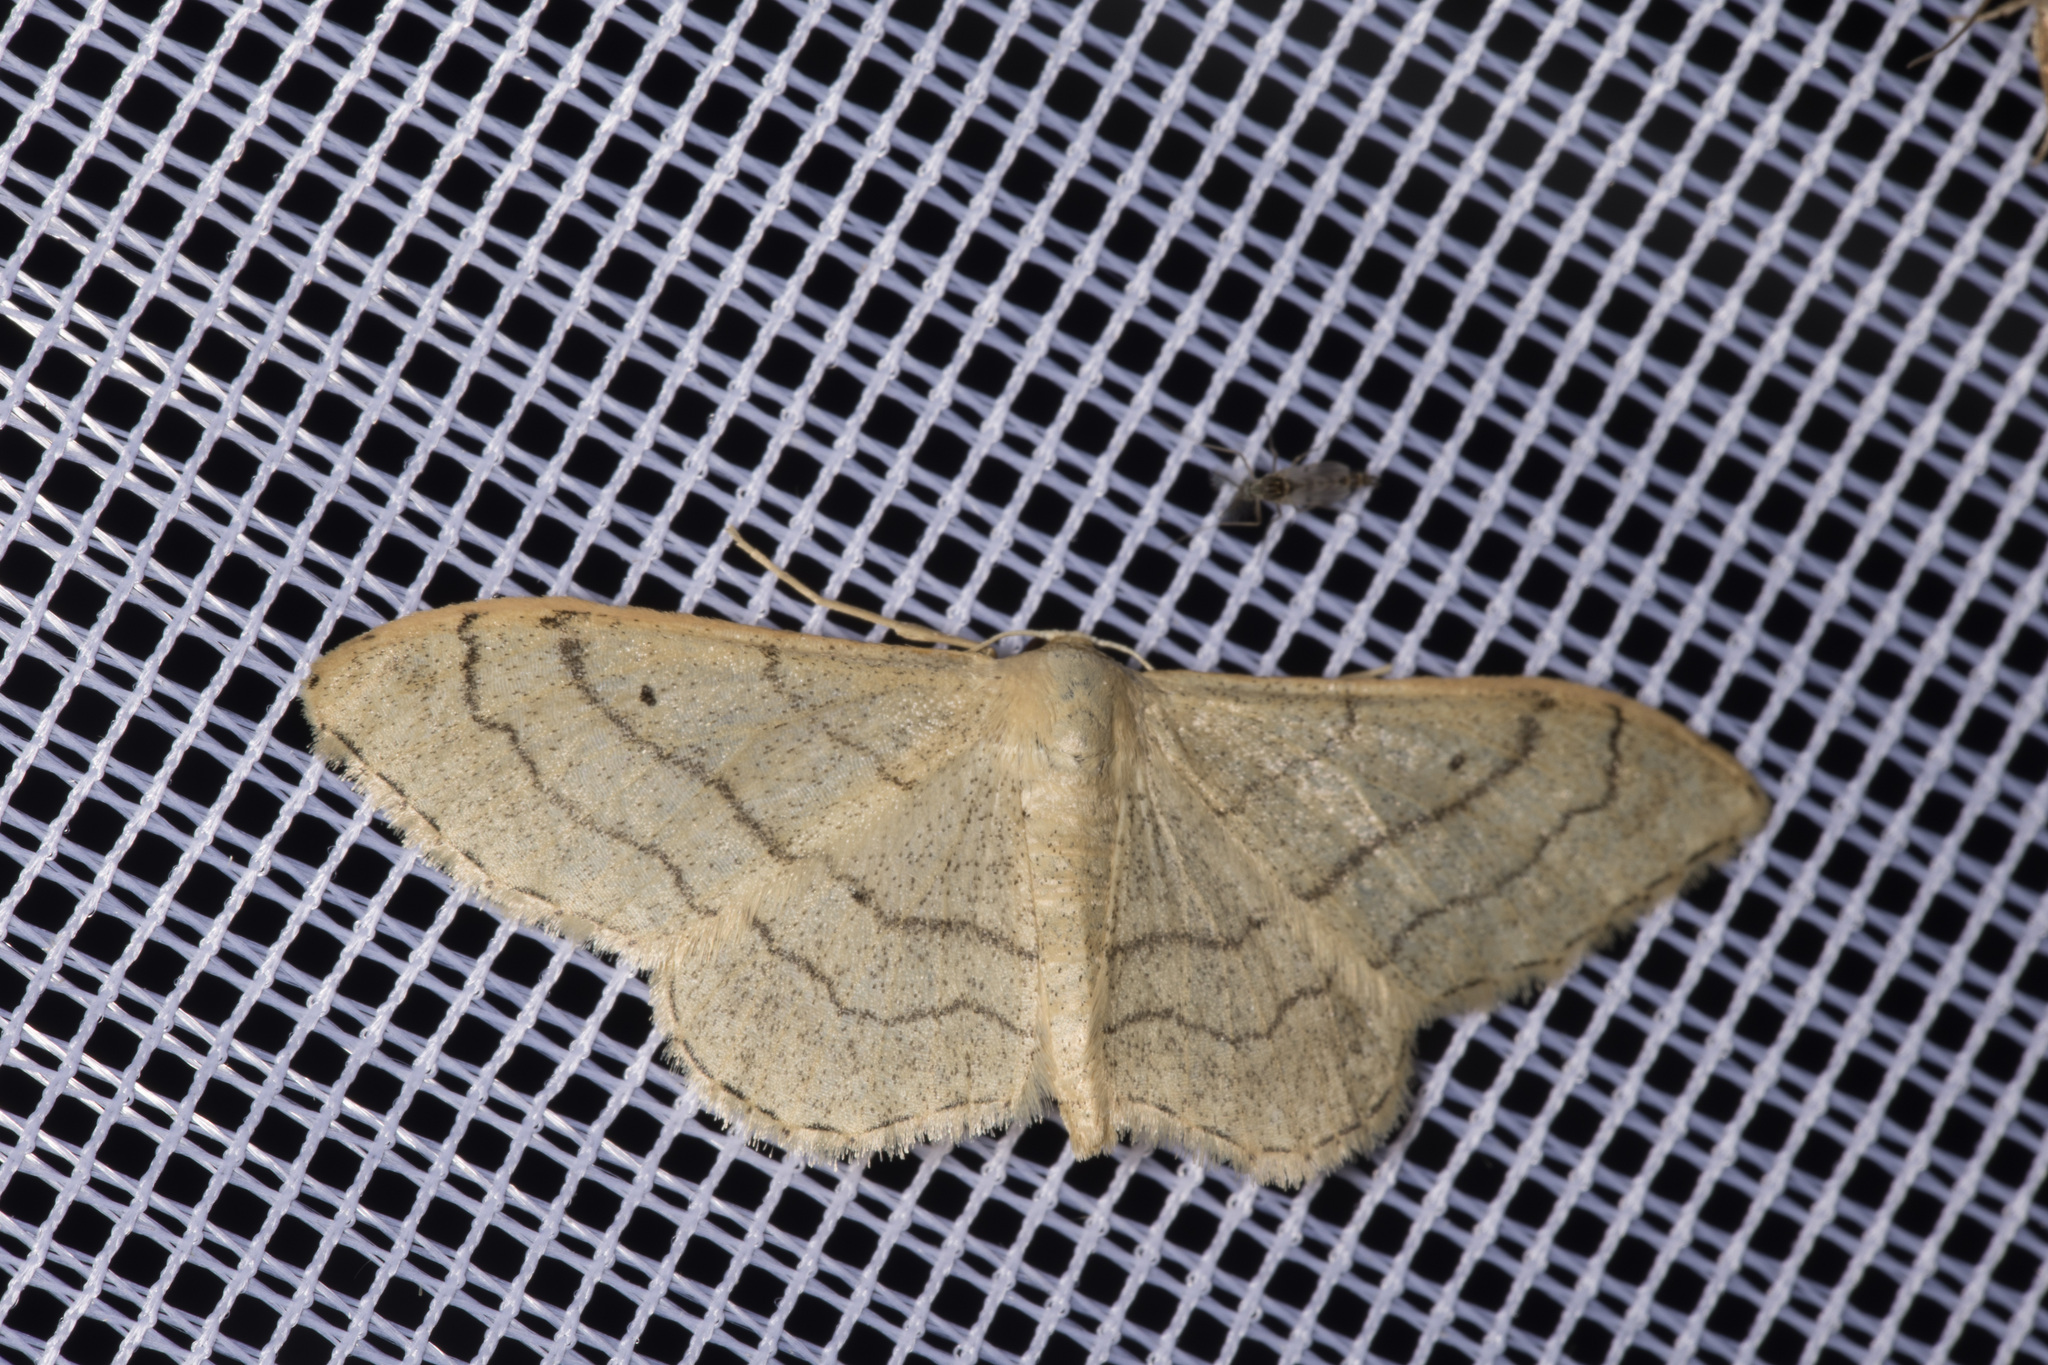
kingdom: Animalia
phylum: Arthropoda
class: Insecta
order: Lepidoptera
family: Geometridae
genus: Idaea
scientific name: Idaea aversata
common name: Riband wave
